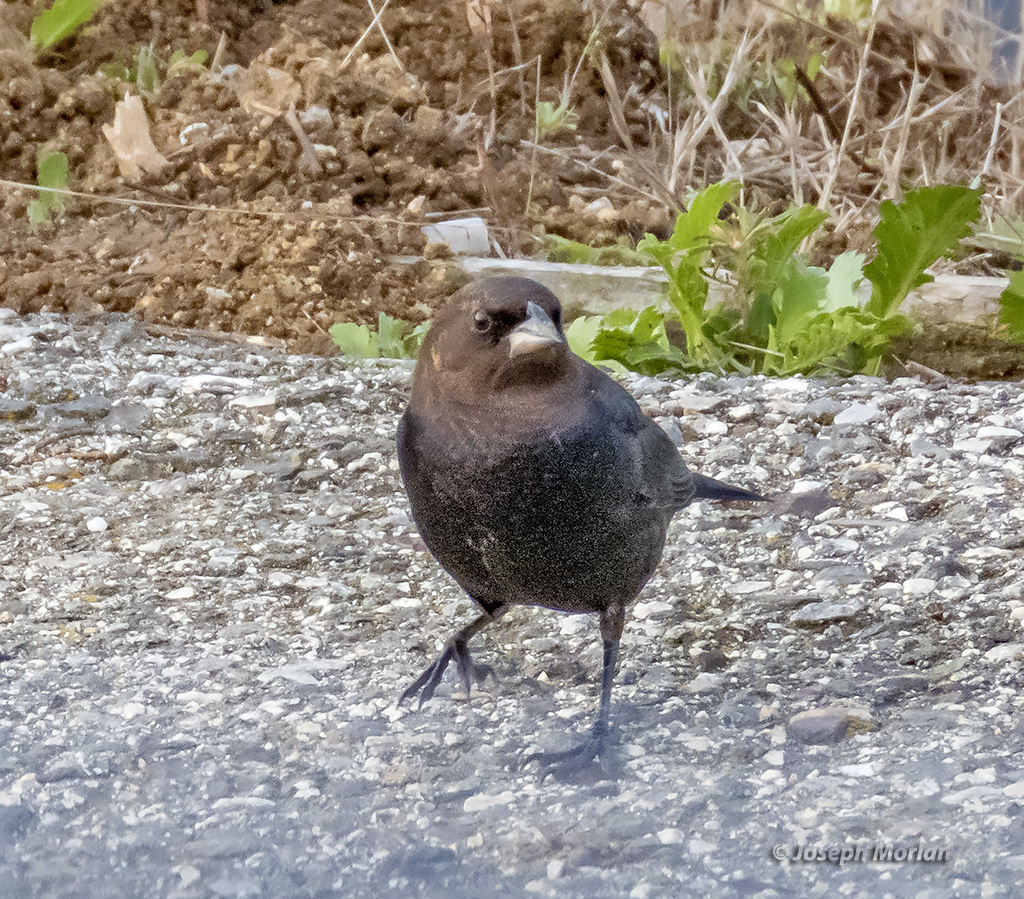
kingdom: Animalia
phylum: Chordata
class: Aves
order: Passeriformes
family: Icteridae
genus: Molothrus
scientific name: Molothrus ater
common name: Brown-headed cowbird
